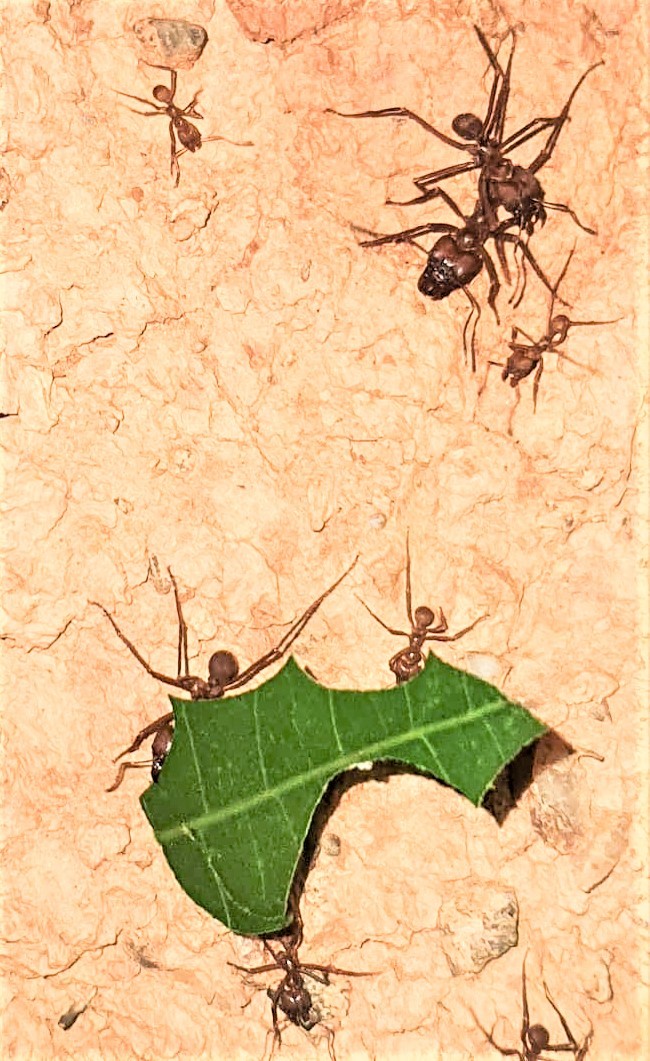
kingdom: Animalia
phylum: Arthropoda
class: Insecta
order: Hymenoptera
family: Formicidae
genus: Atta
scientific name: Atta cephalotes
